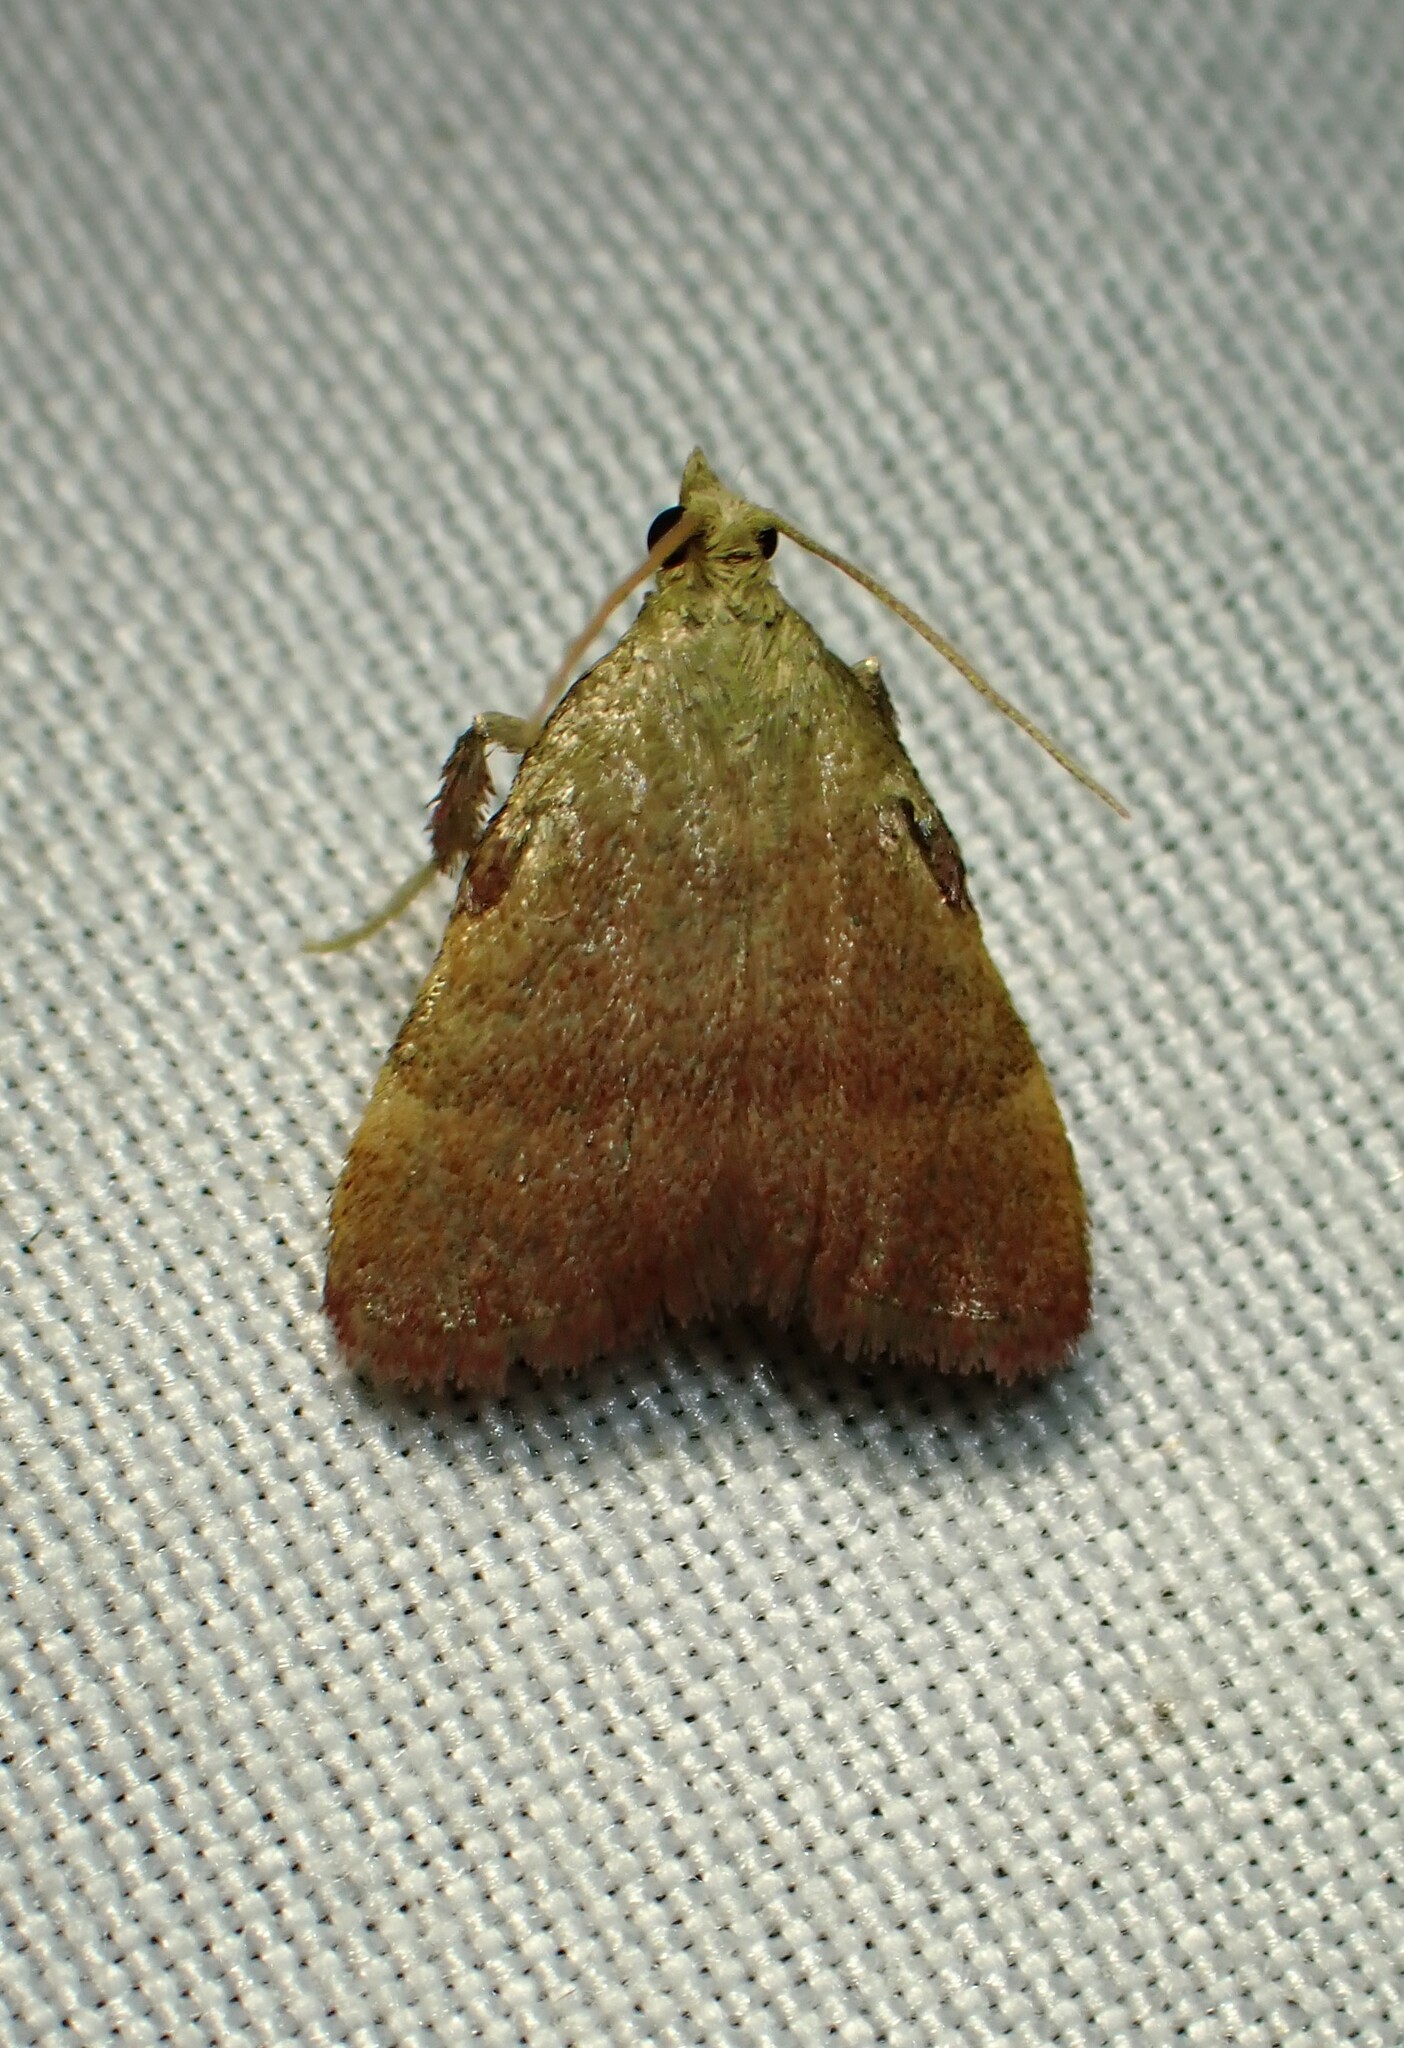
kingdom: Animalia
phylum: Arthropoda
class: Insecta
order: Lepidoptera
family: Pyralidae
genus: Condylolomia
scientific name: Condylolomia participialis
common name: Drab condylolomia moth
